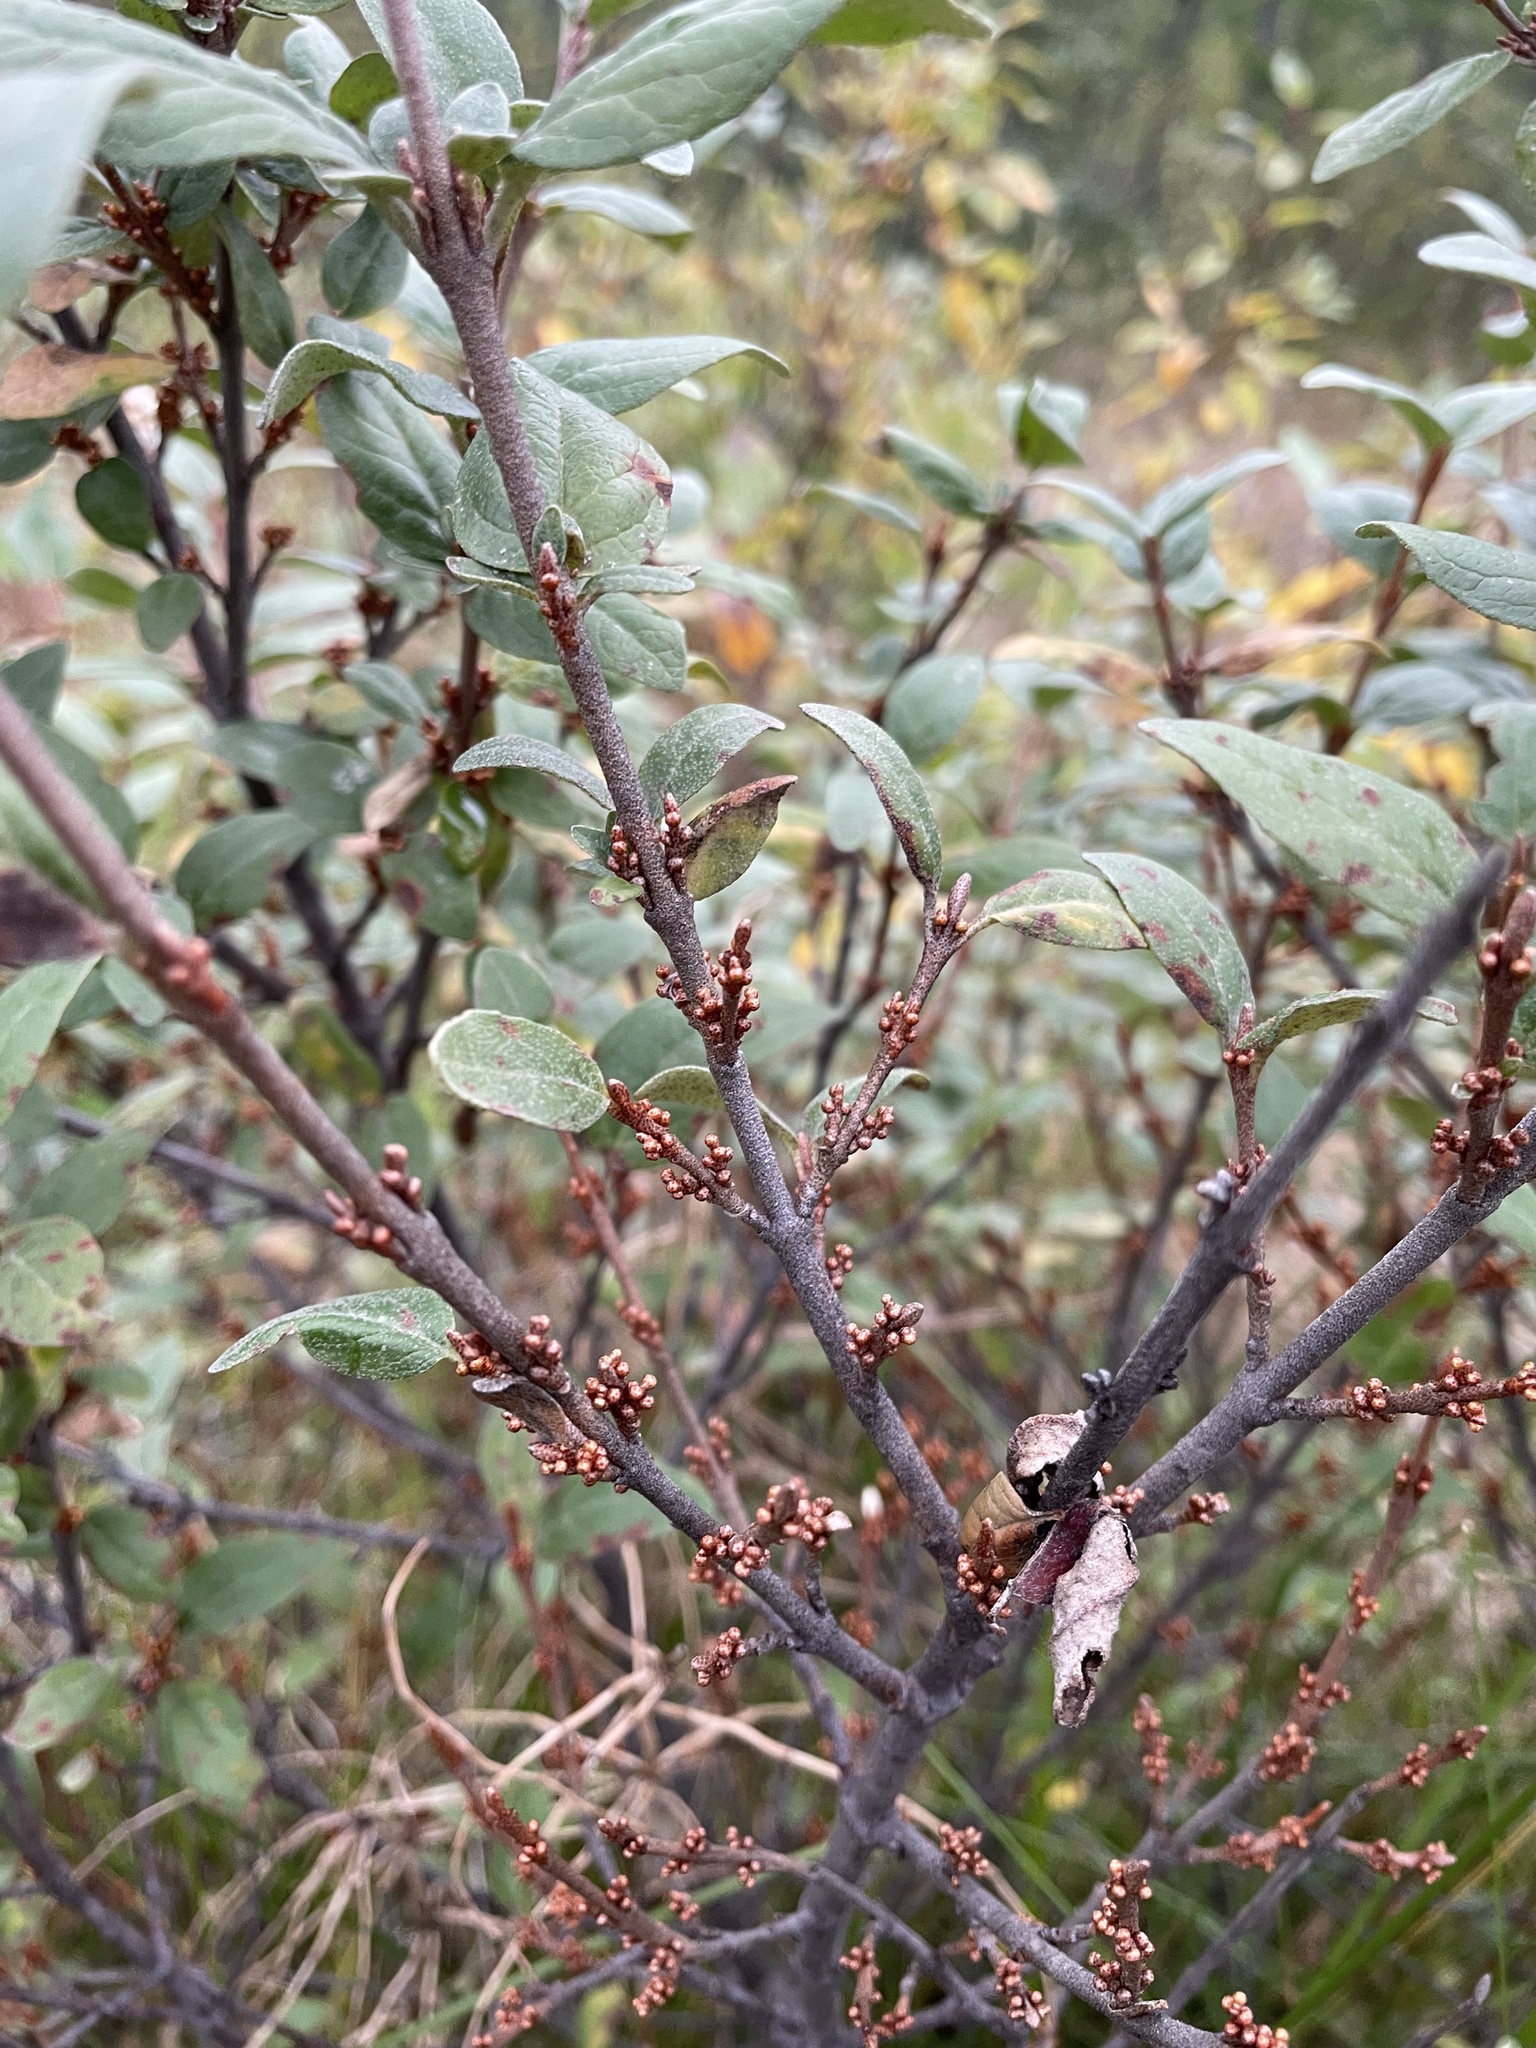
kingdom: Plantae
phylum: Tracheophyta
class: Magnoliopsida
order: Rosales
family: Elaeagnaceae
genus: Shepherdia
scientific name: Shepherdia canadensis
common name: Soapberry
